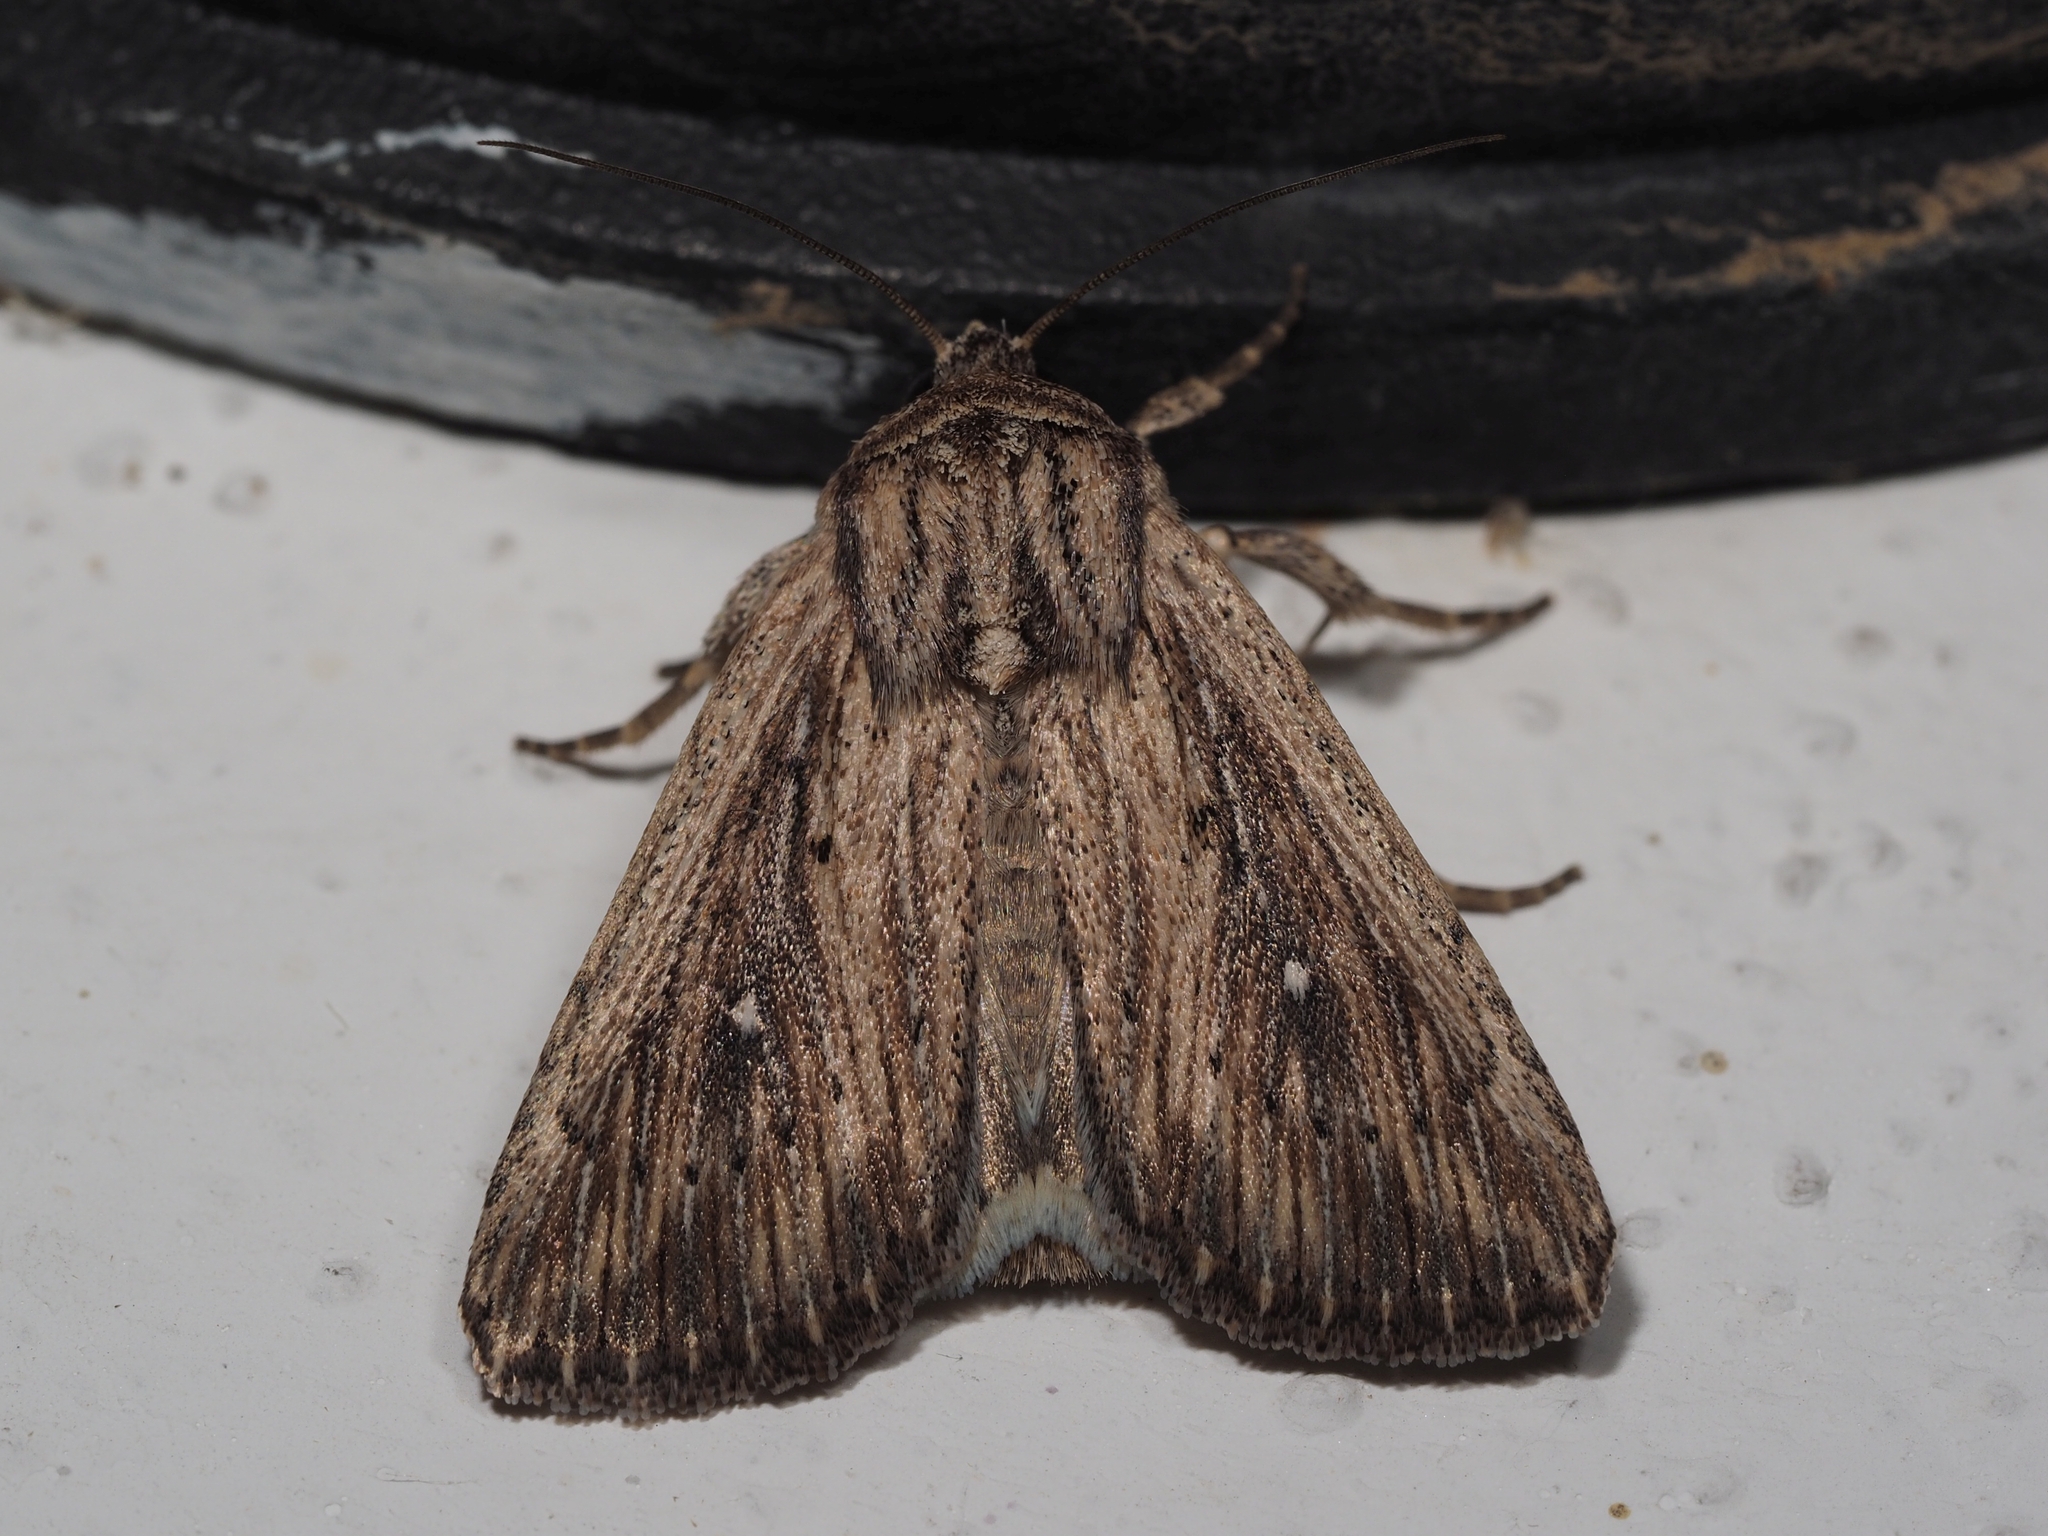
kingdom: Animalia
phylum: Arthropoda
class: Insecta
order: Lepidoptera
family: Noctuidae
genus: Leucania
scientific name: Leucania putrescens
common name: Devonshire wainscot
